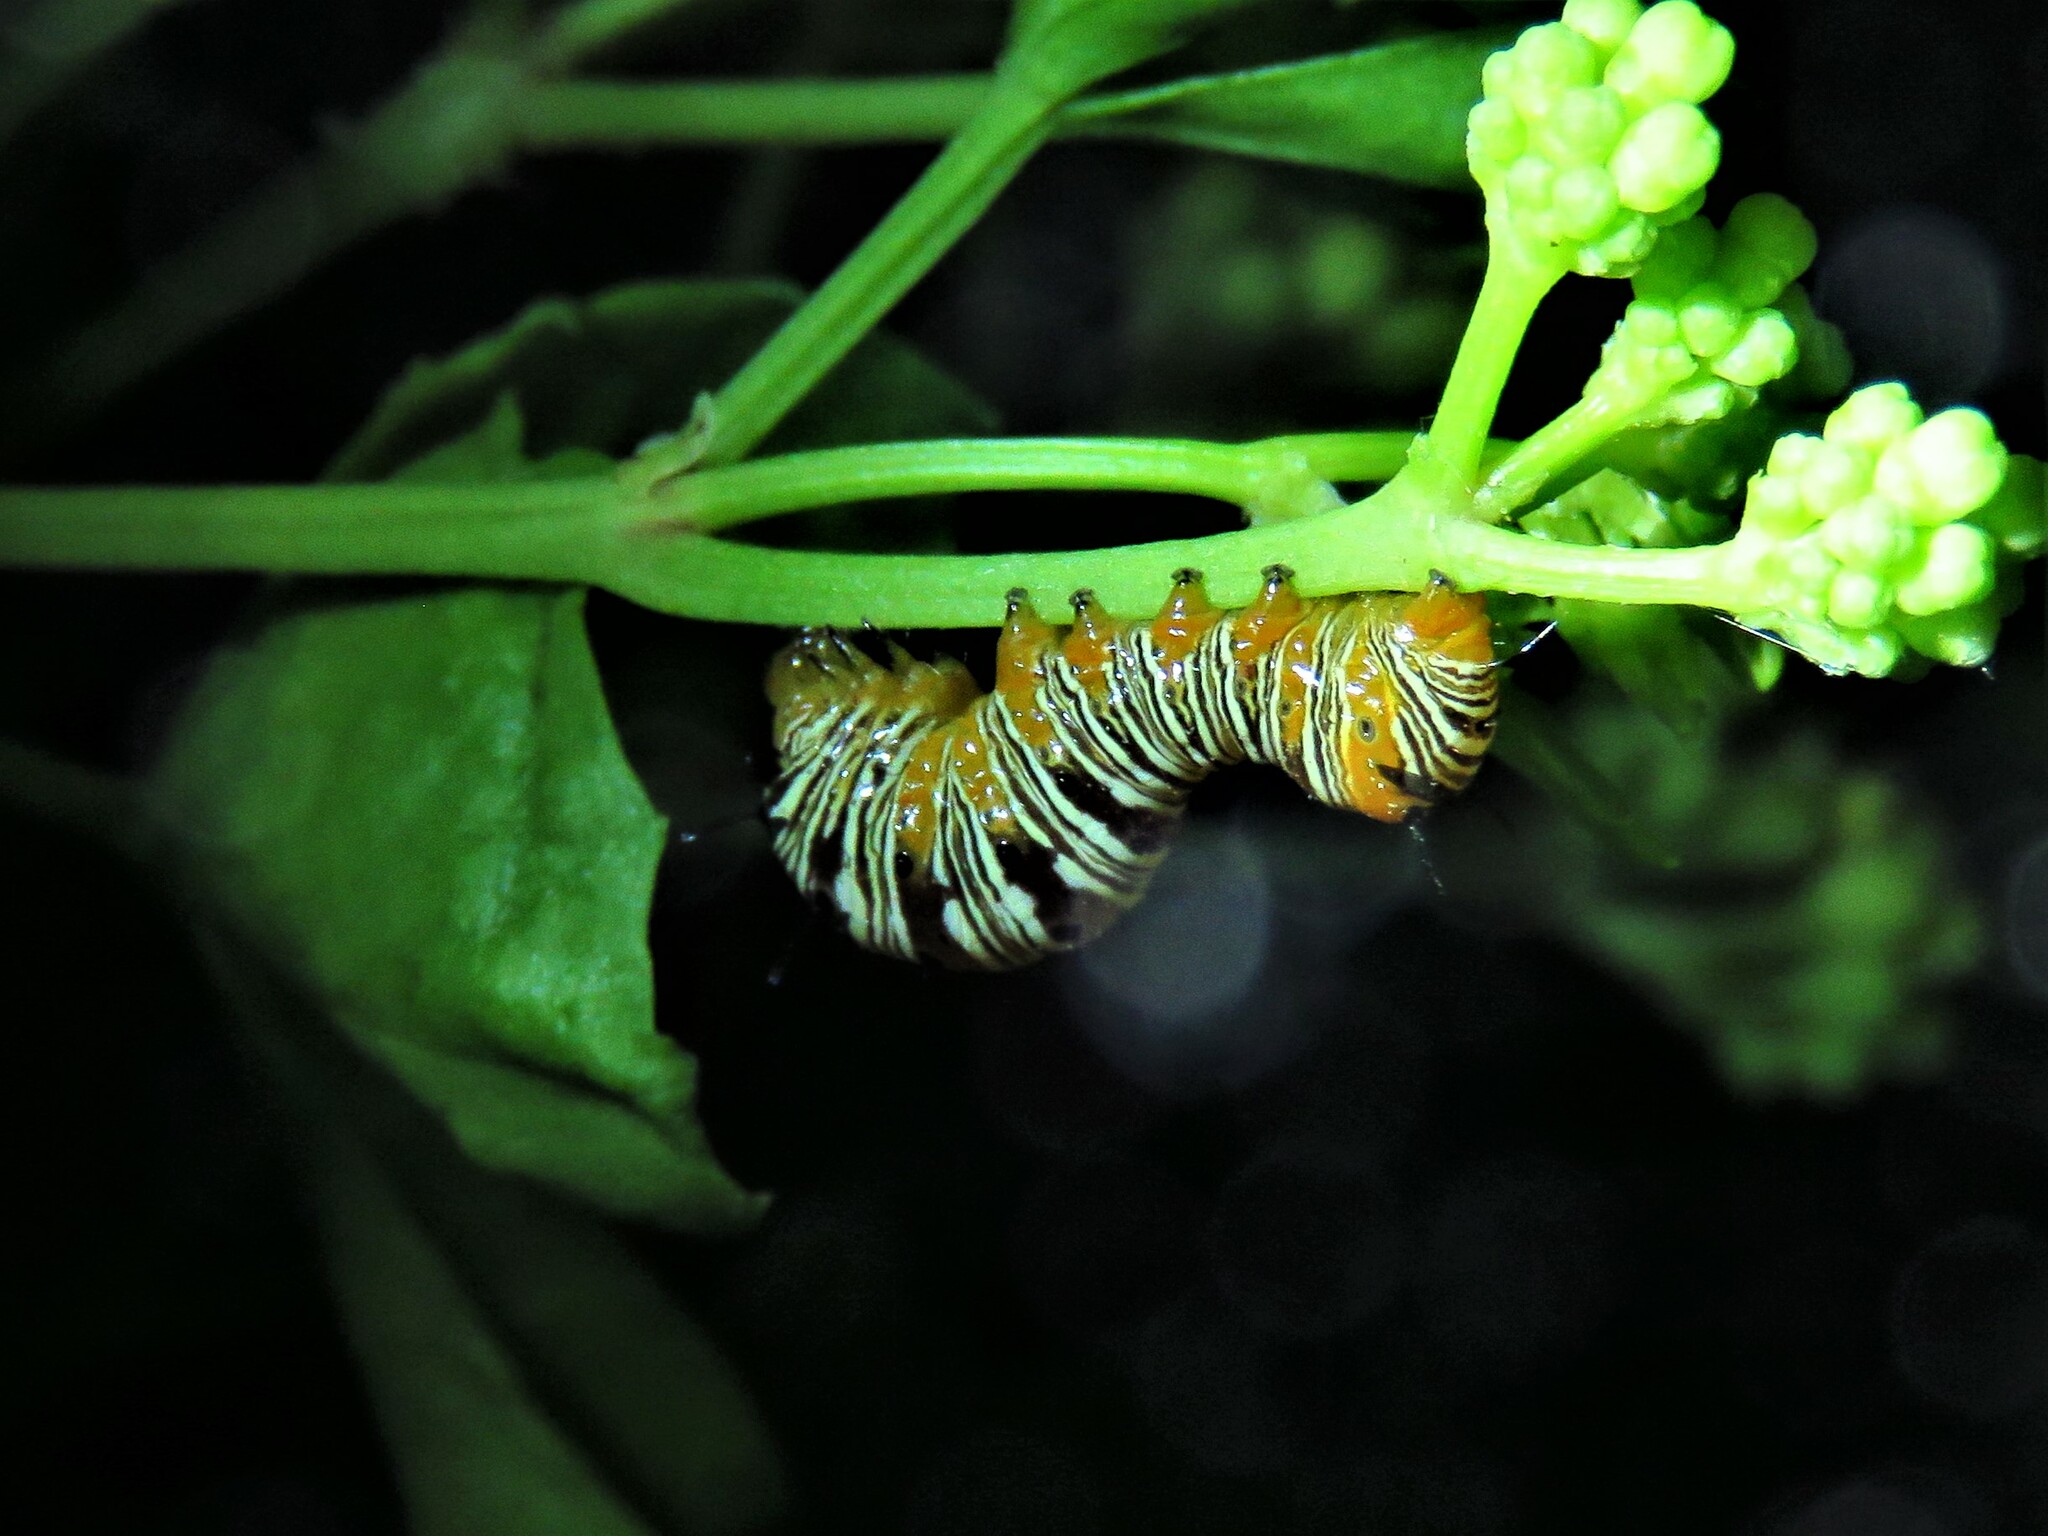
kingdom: Animalia
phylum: Arthropoda
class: Insecta
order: Lepidoptera
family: Noctuidae
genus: Xerociris
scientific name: Xerociris wilsonii
